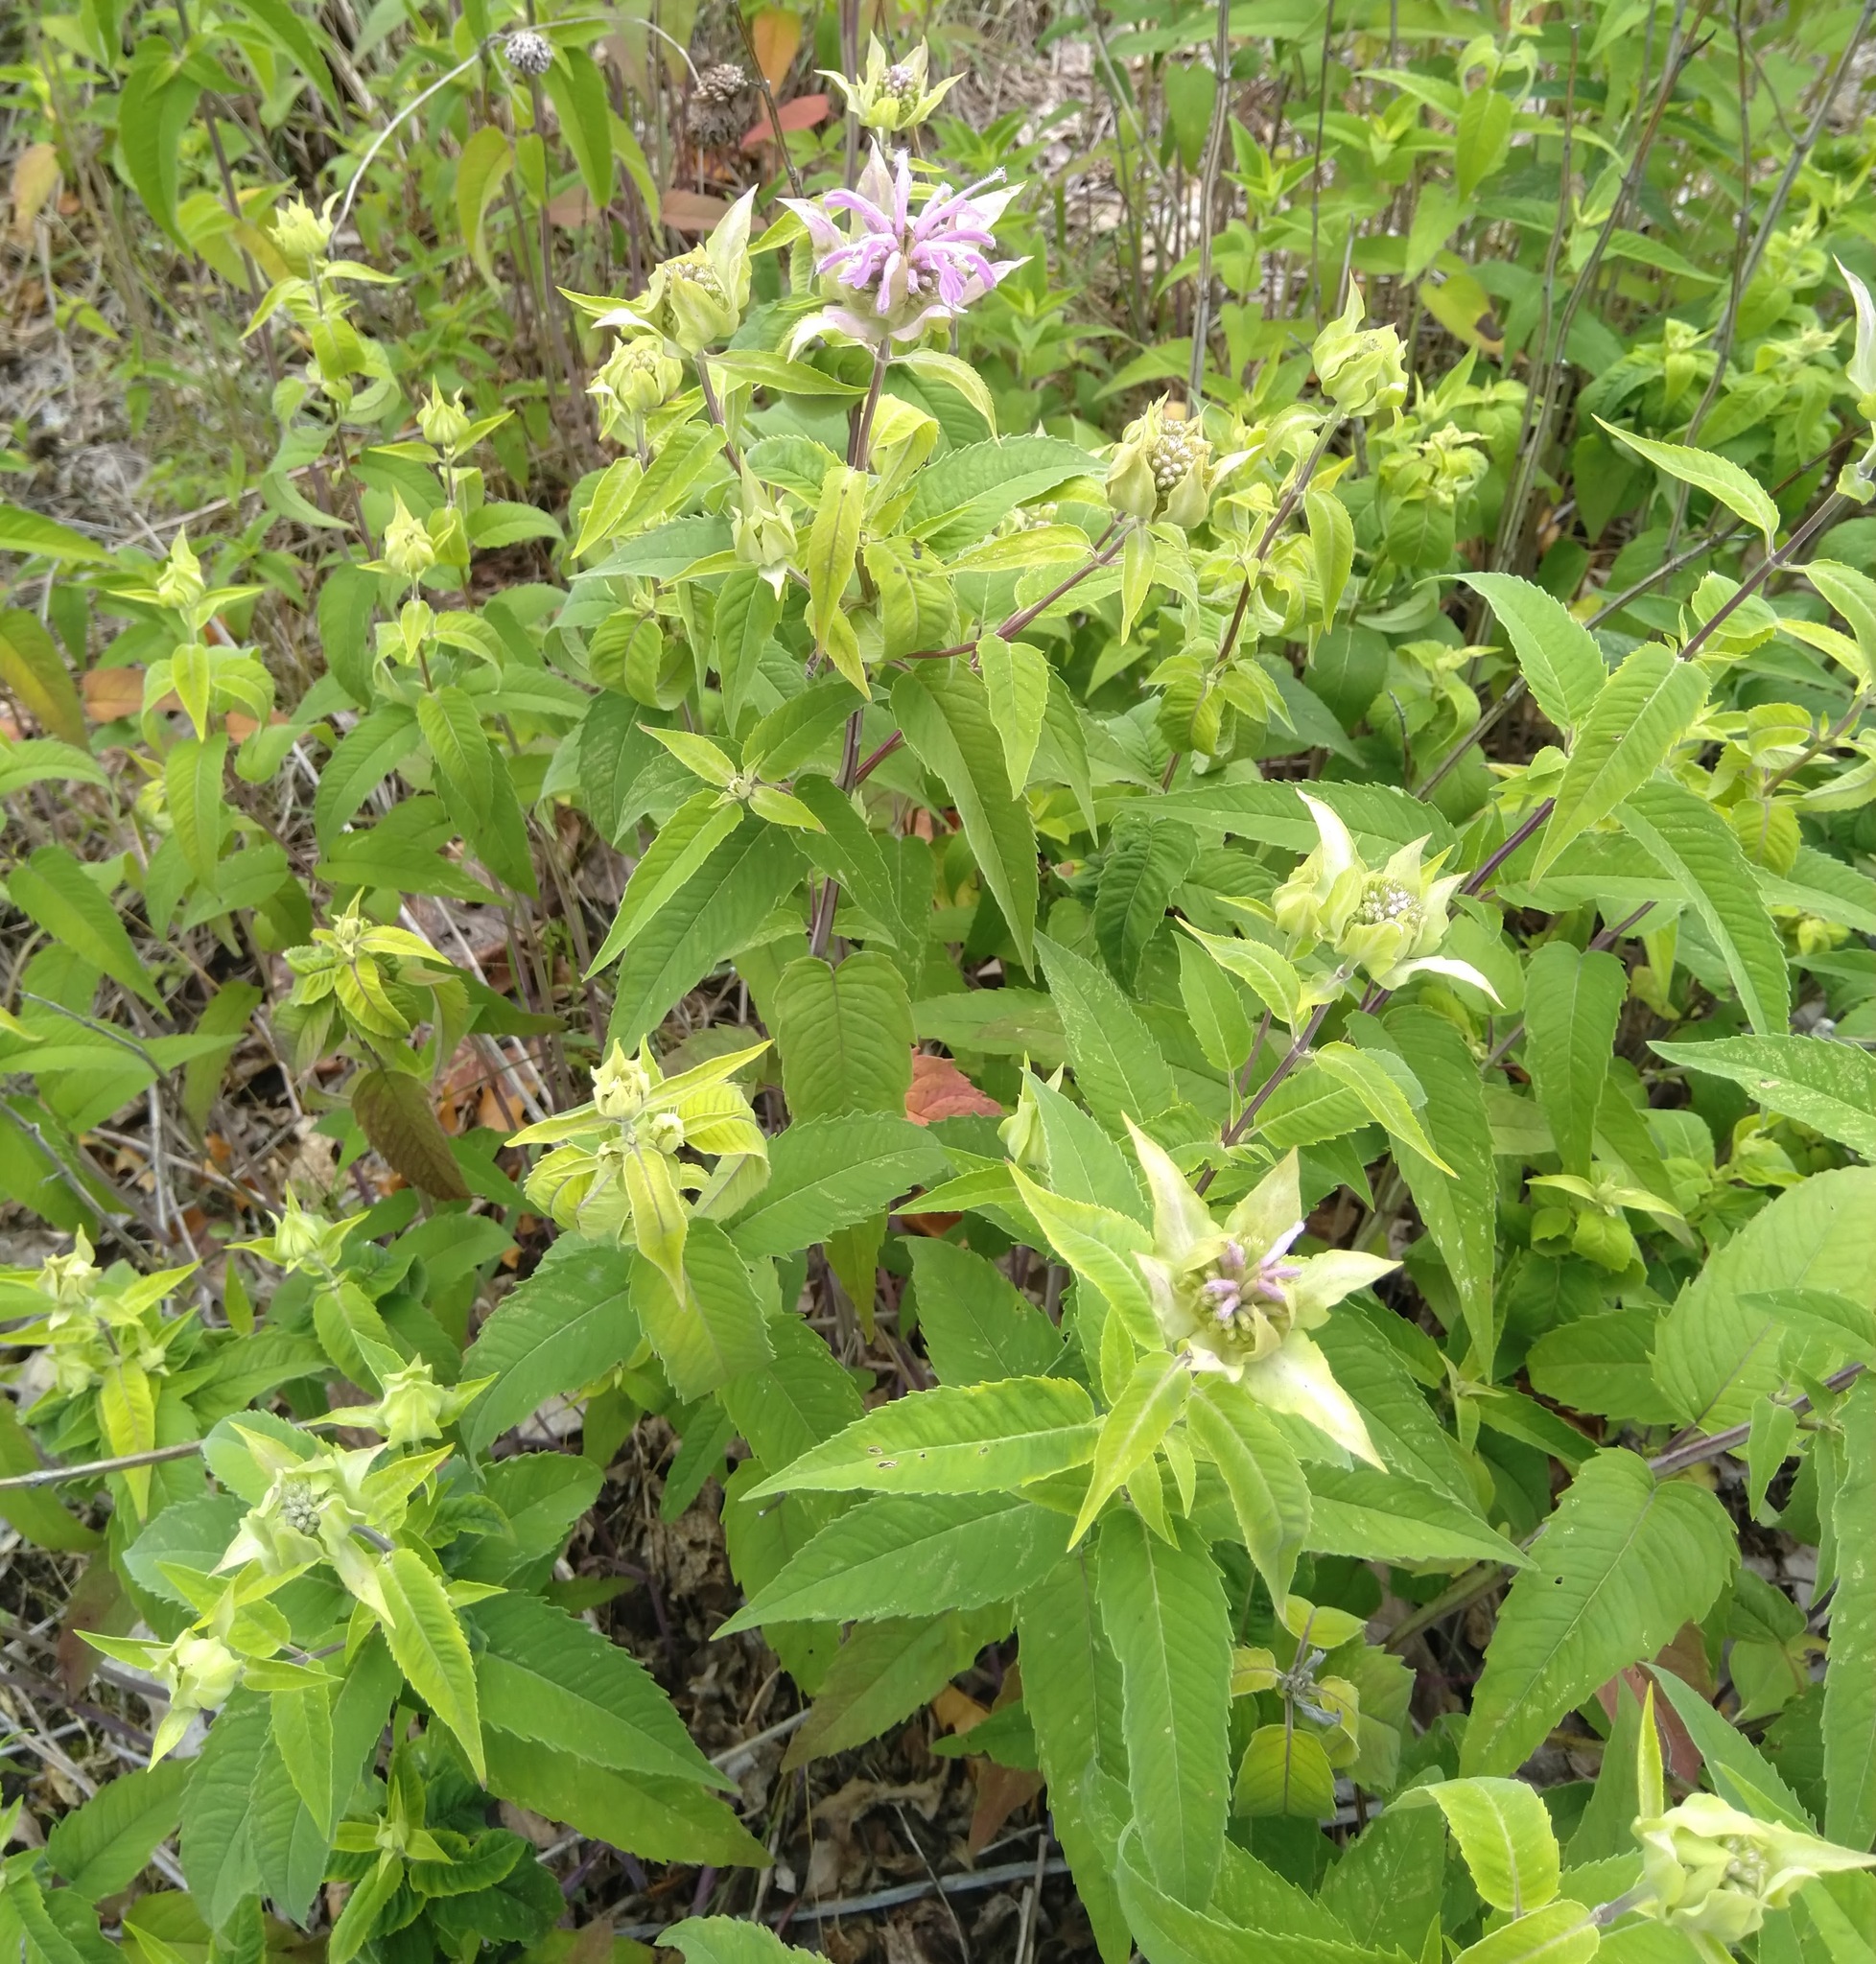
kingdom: Plantae
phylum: Tracheophyta
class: Magnoliopsida
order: Lamiales
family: Lamiaceae
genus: Monarda
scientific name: Monarda fistulosa
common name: Purple beebalm
